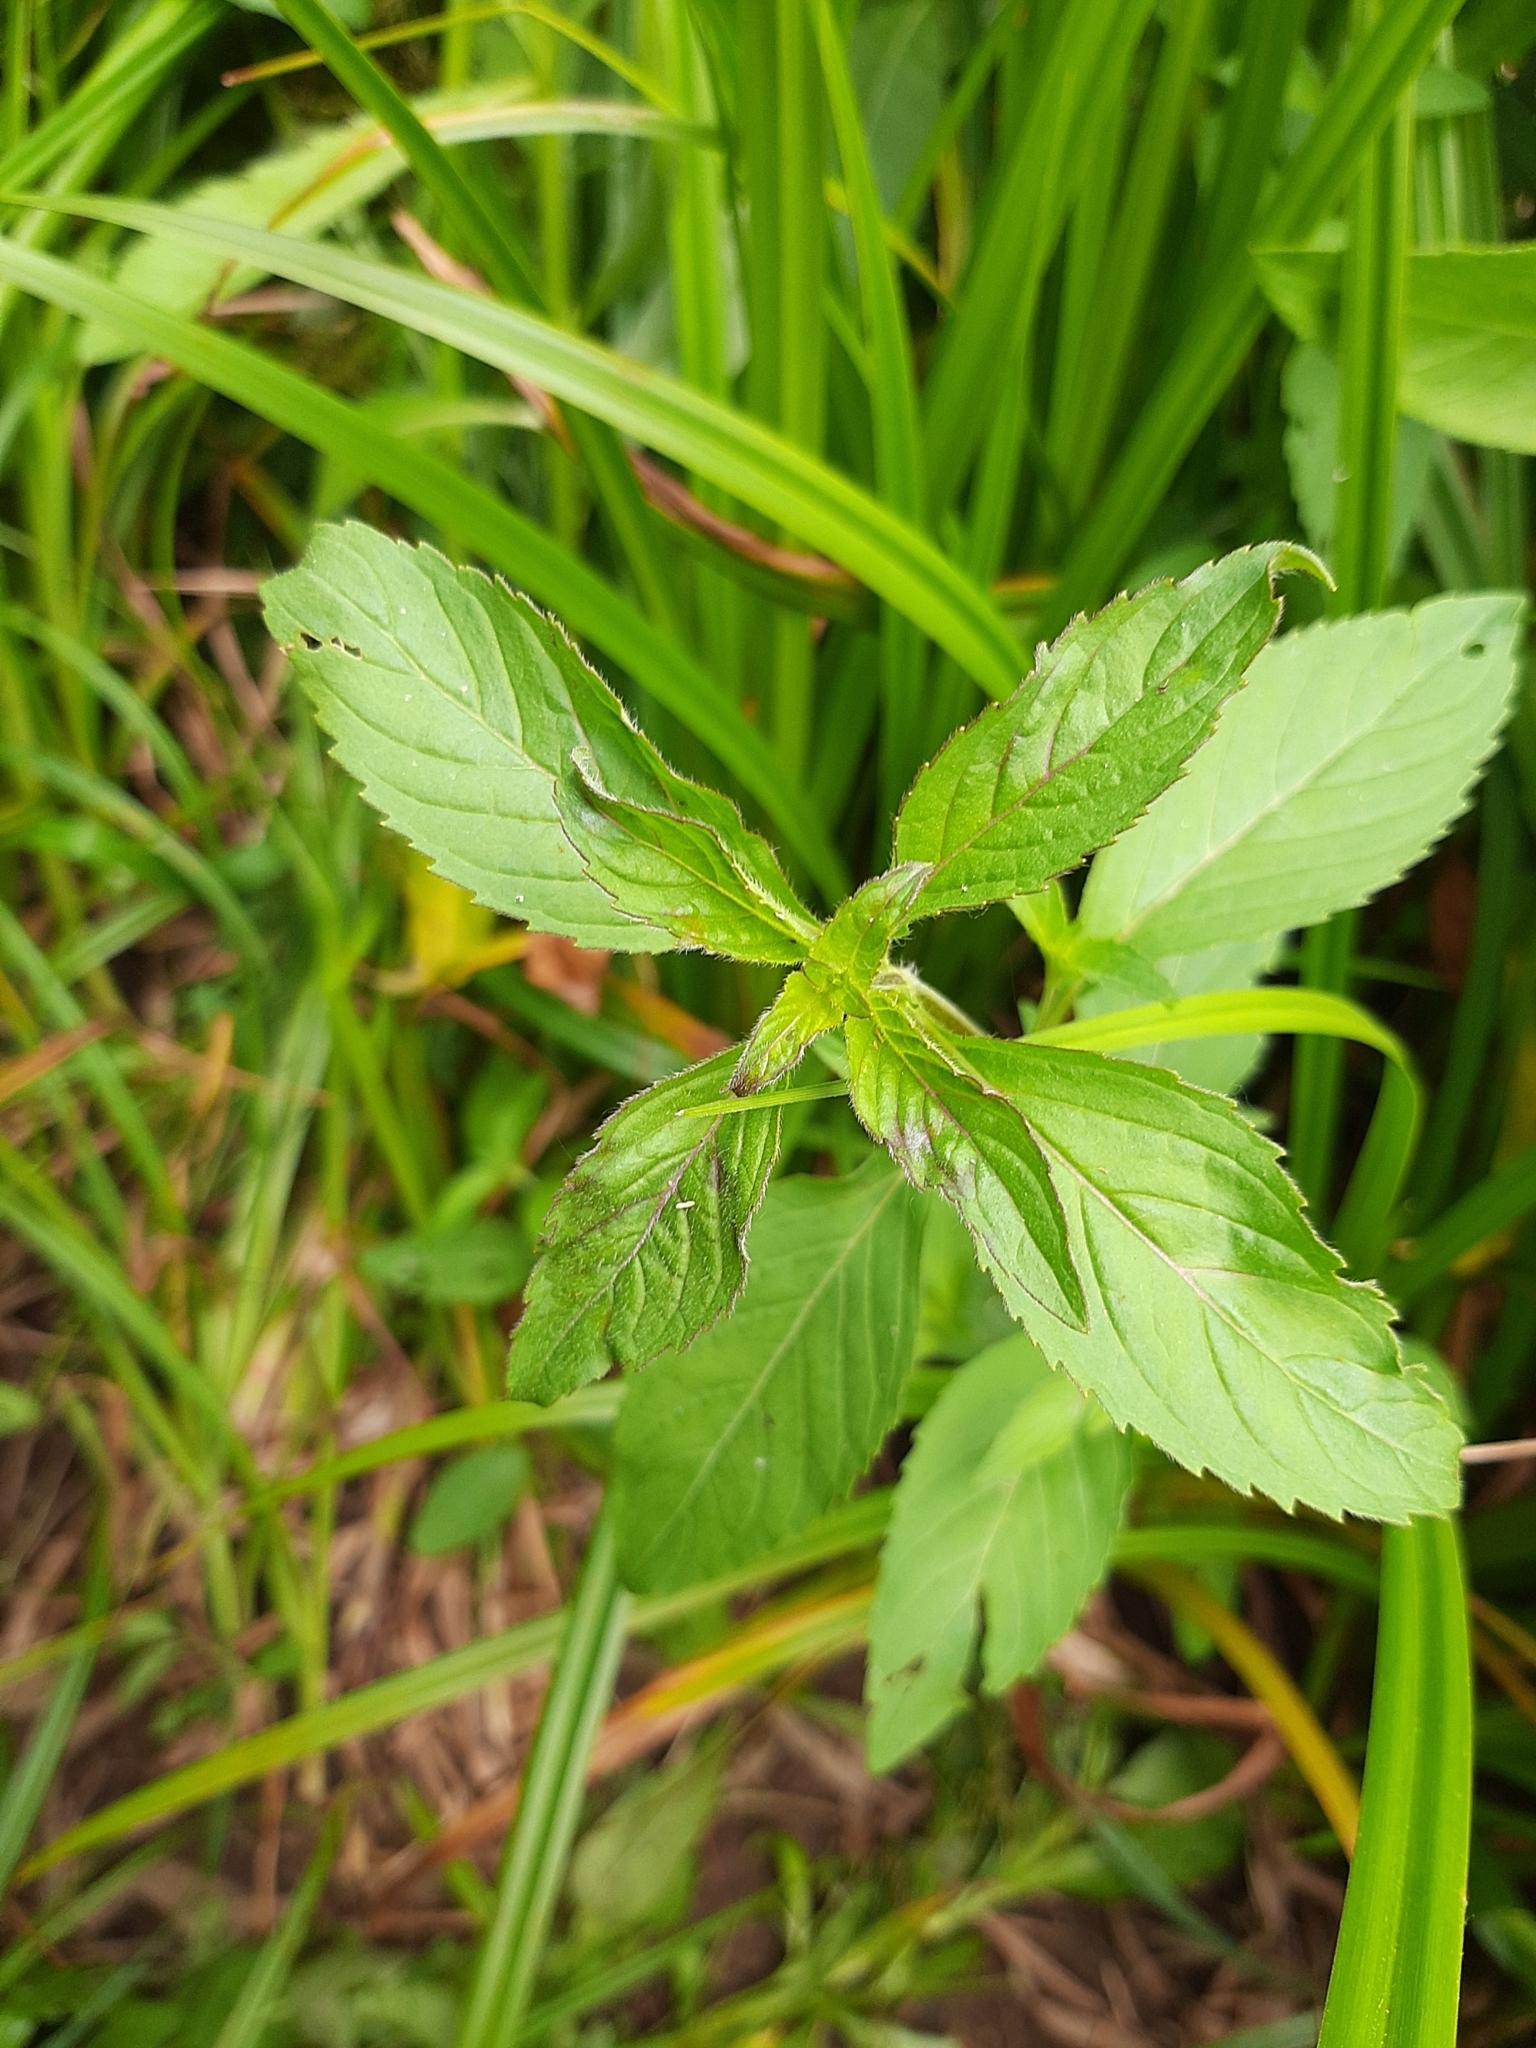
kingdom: Plantae
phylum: Tracheophyta
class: Magnoliopsida
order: Lamiales
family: Lamiaceae
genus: Mentha
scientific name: Mentha arvensis
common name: Corn mint
